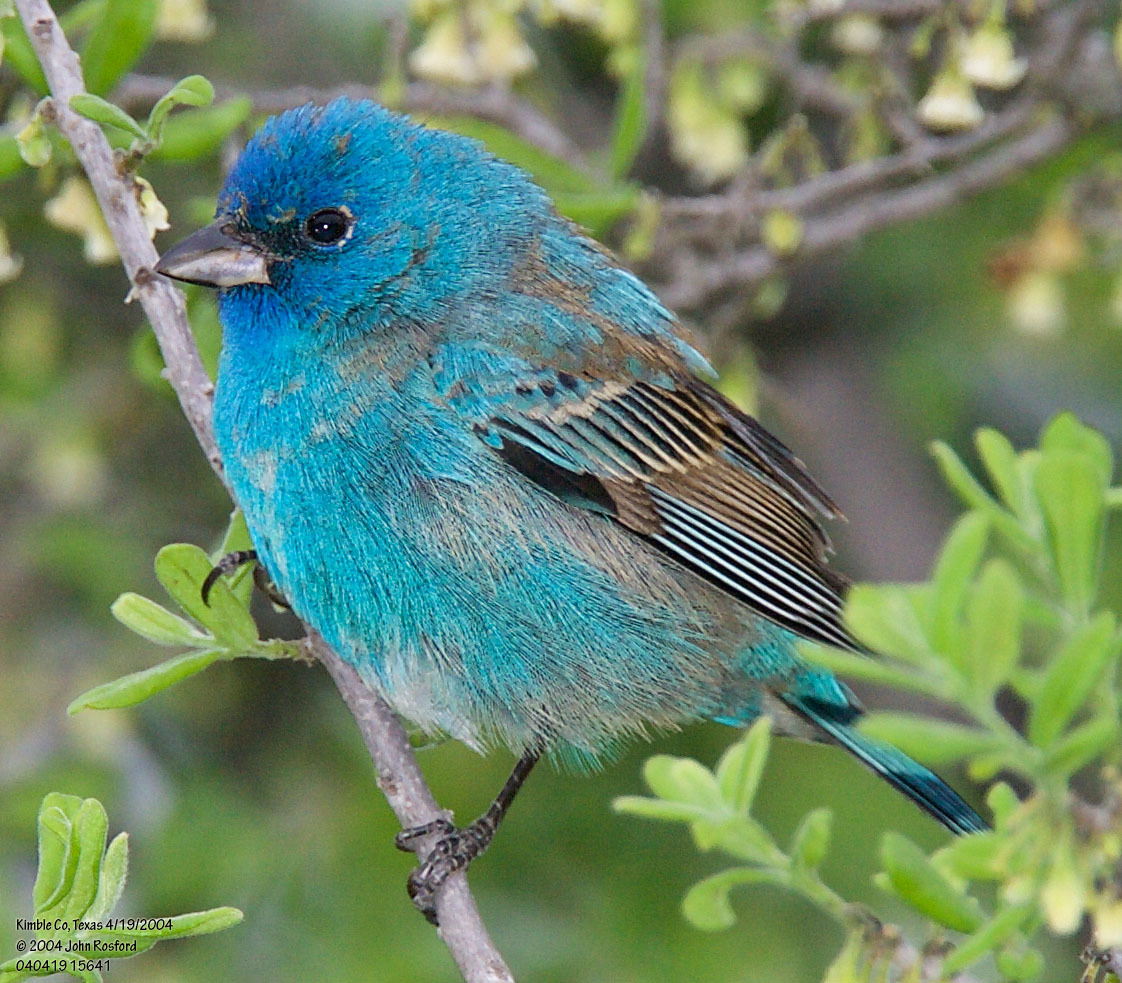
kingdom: Animalia
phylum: Chordata
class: Aves
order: Passeriformes
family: Cardinalidae
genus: Passerina
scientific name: Passerina cyanea
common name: Indigo bunting
